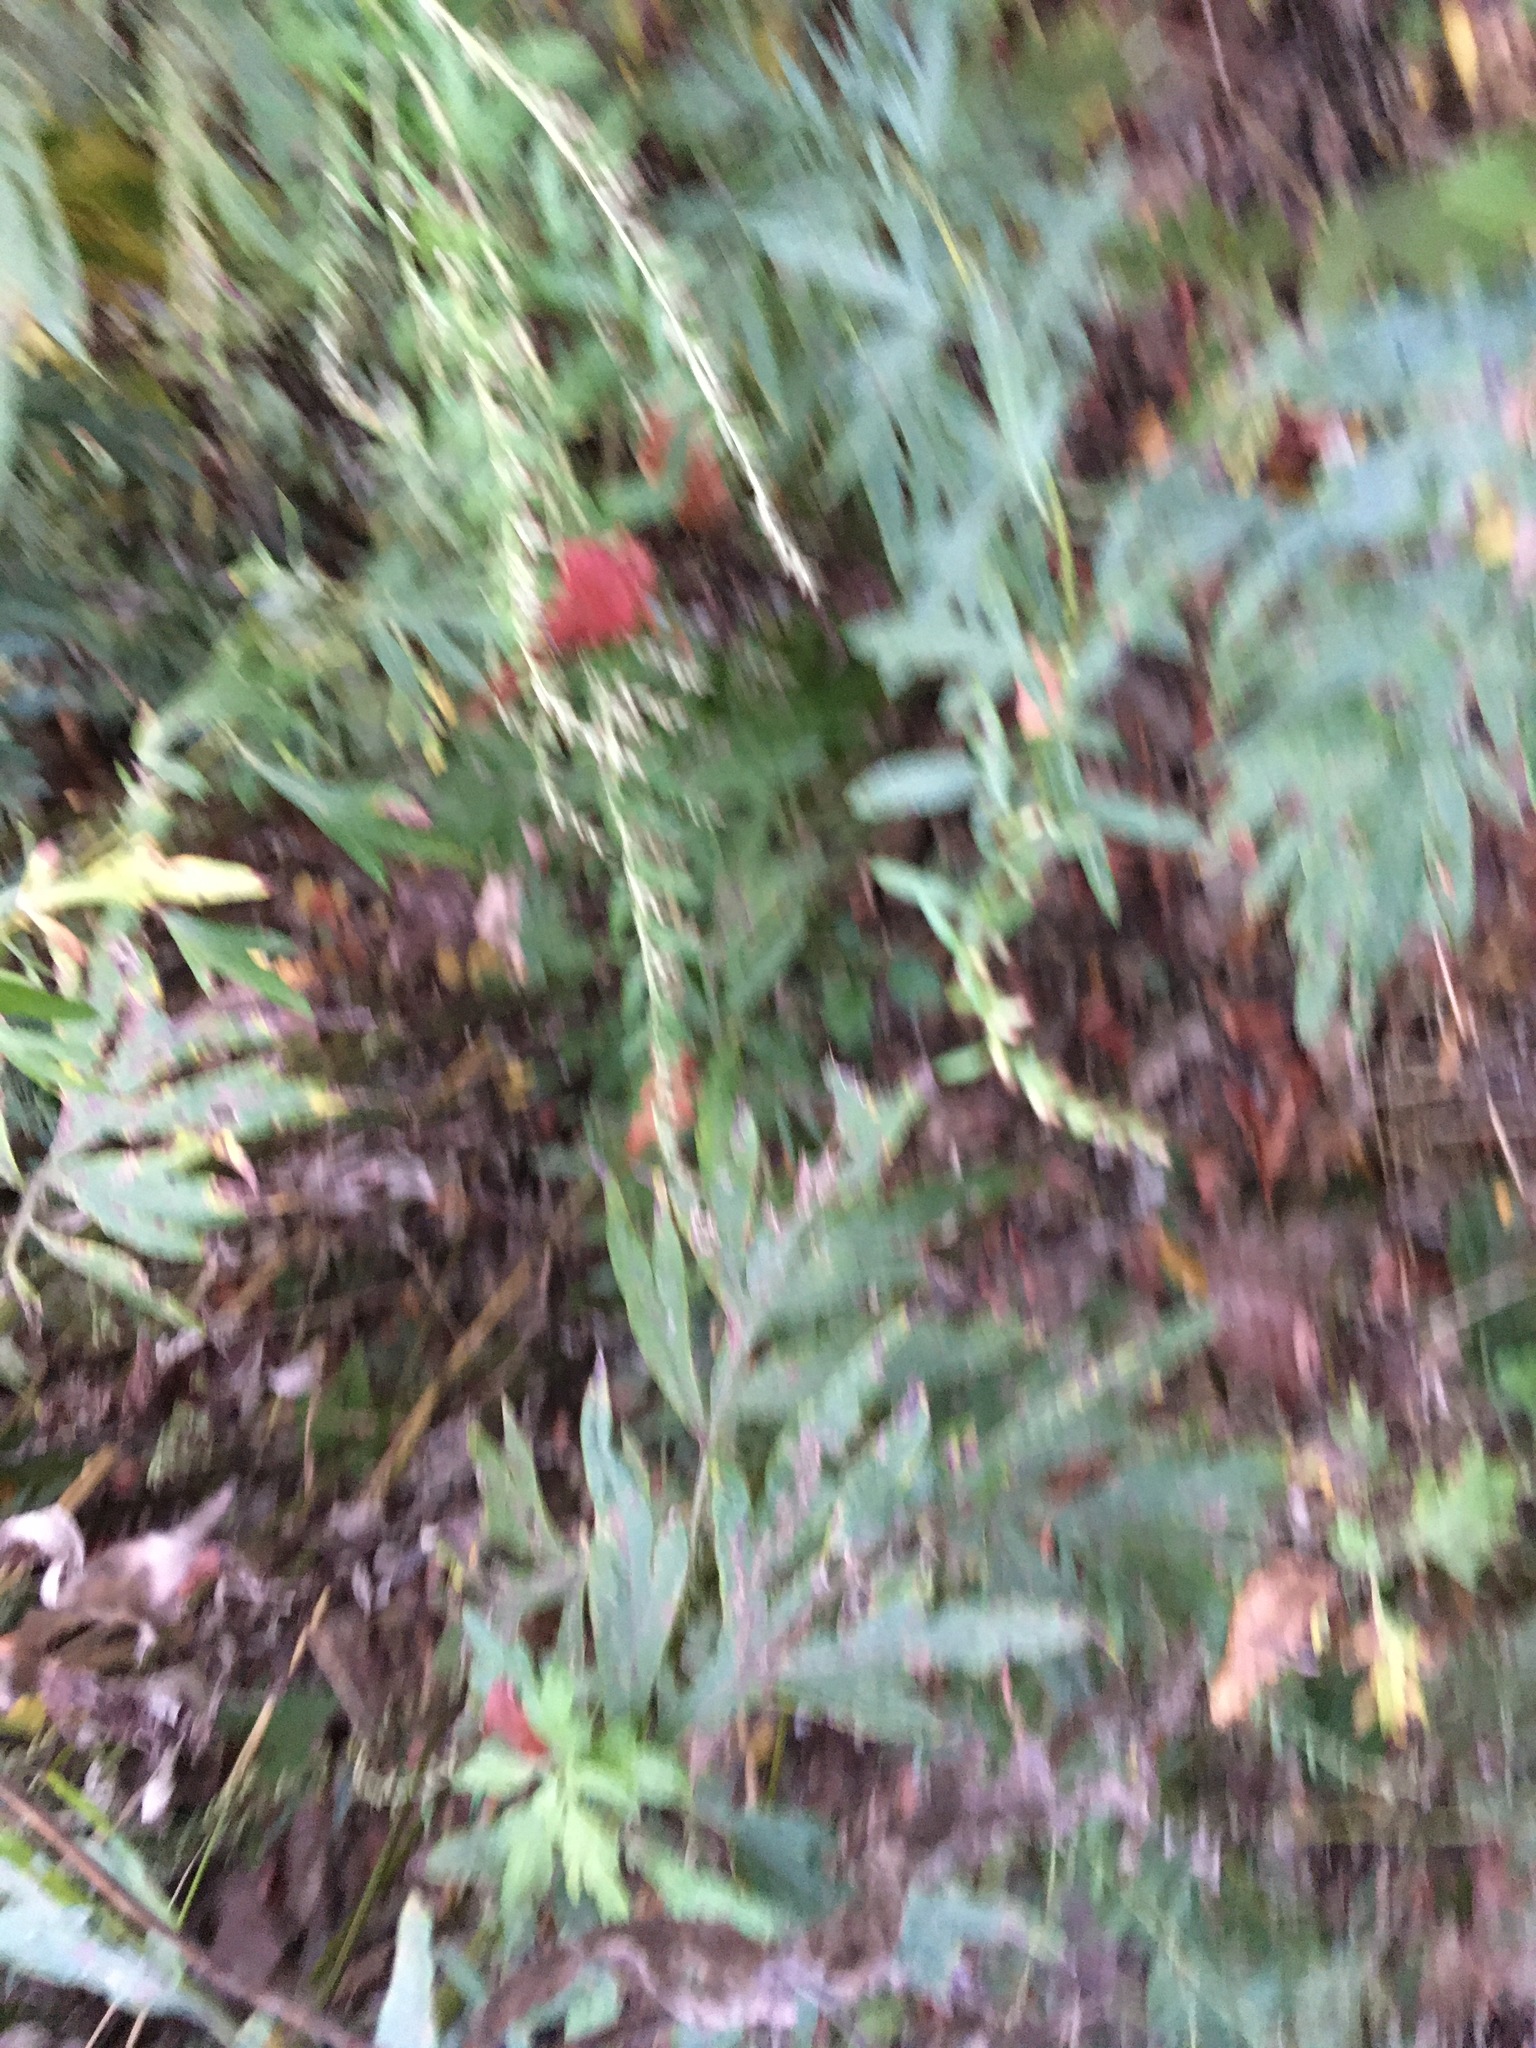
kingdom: Plantae
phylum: Tracheophyta
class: Magnoliopsida
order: Asterales
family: Asteraceae
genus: Artemisia
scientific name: Artemisia vulgaris
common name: Mugwort
